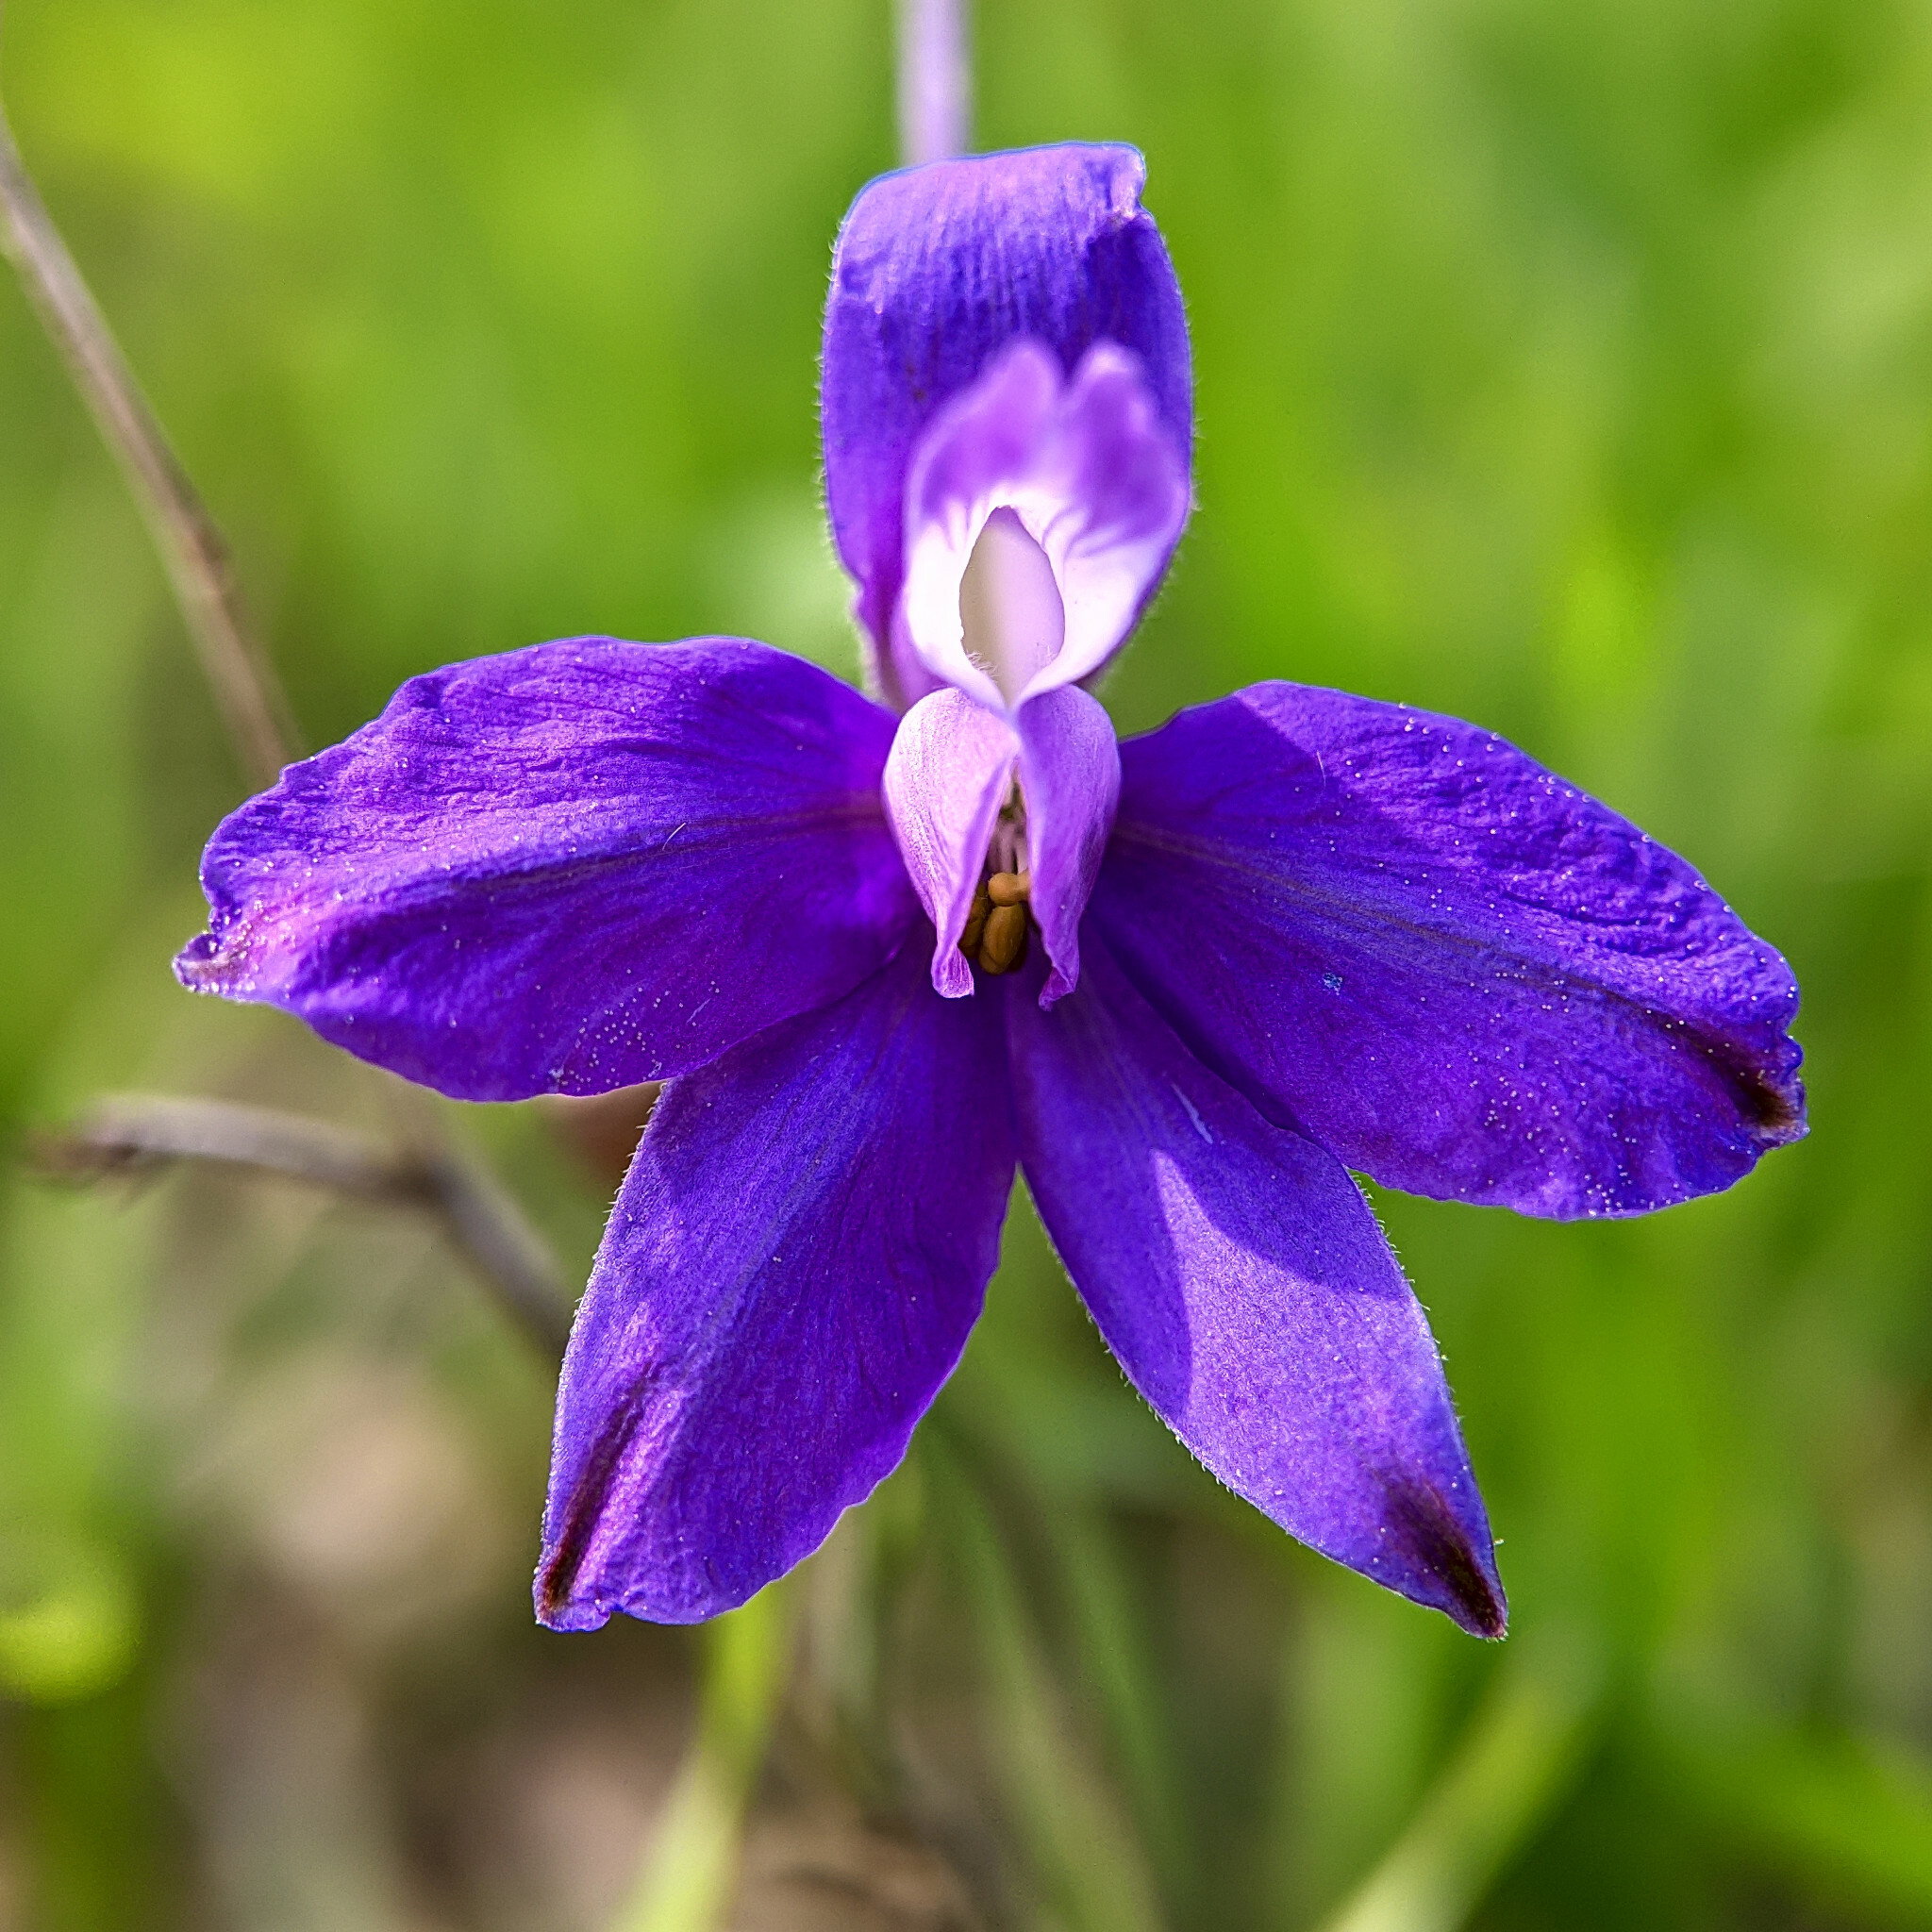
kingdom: Plantae
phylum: Tracheophyta
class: Magnoliopsida
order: Ranunculales
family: Ranunculaceae
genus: Delphinium
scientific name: Delphinium consolida
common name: Branching larkspur
